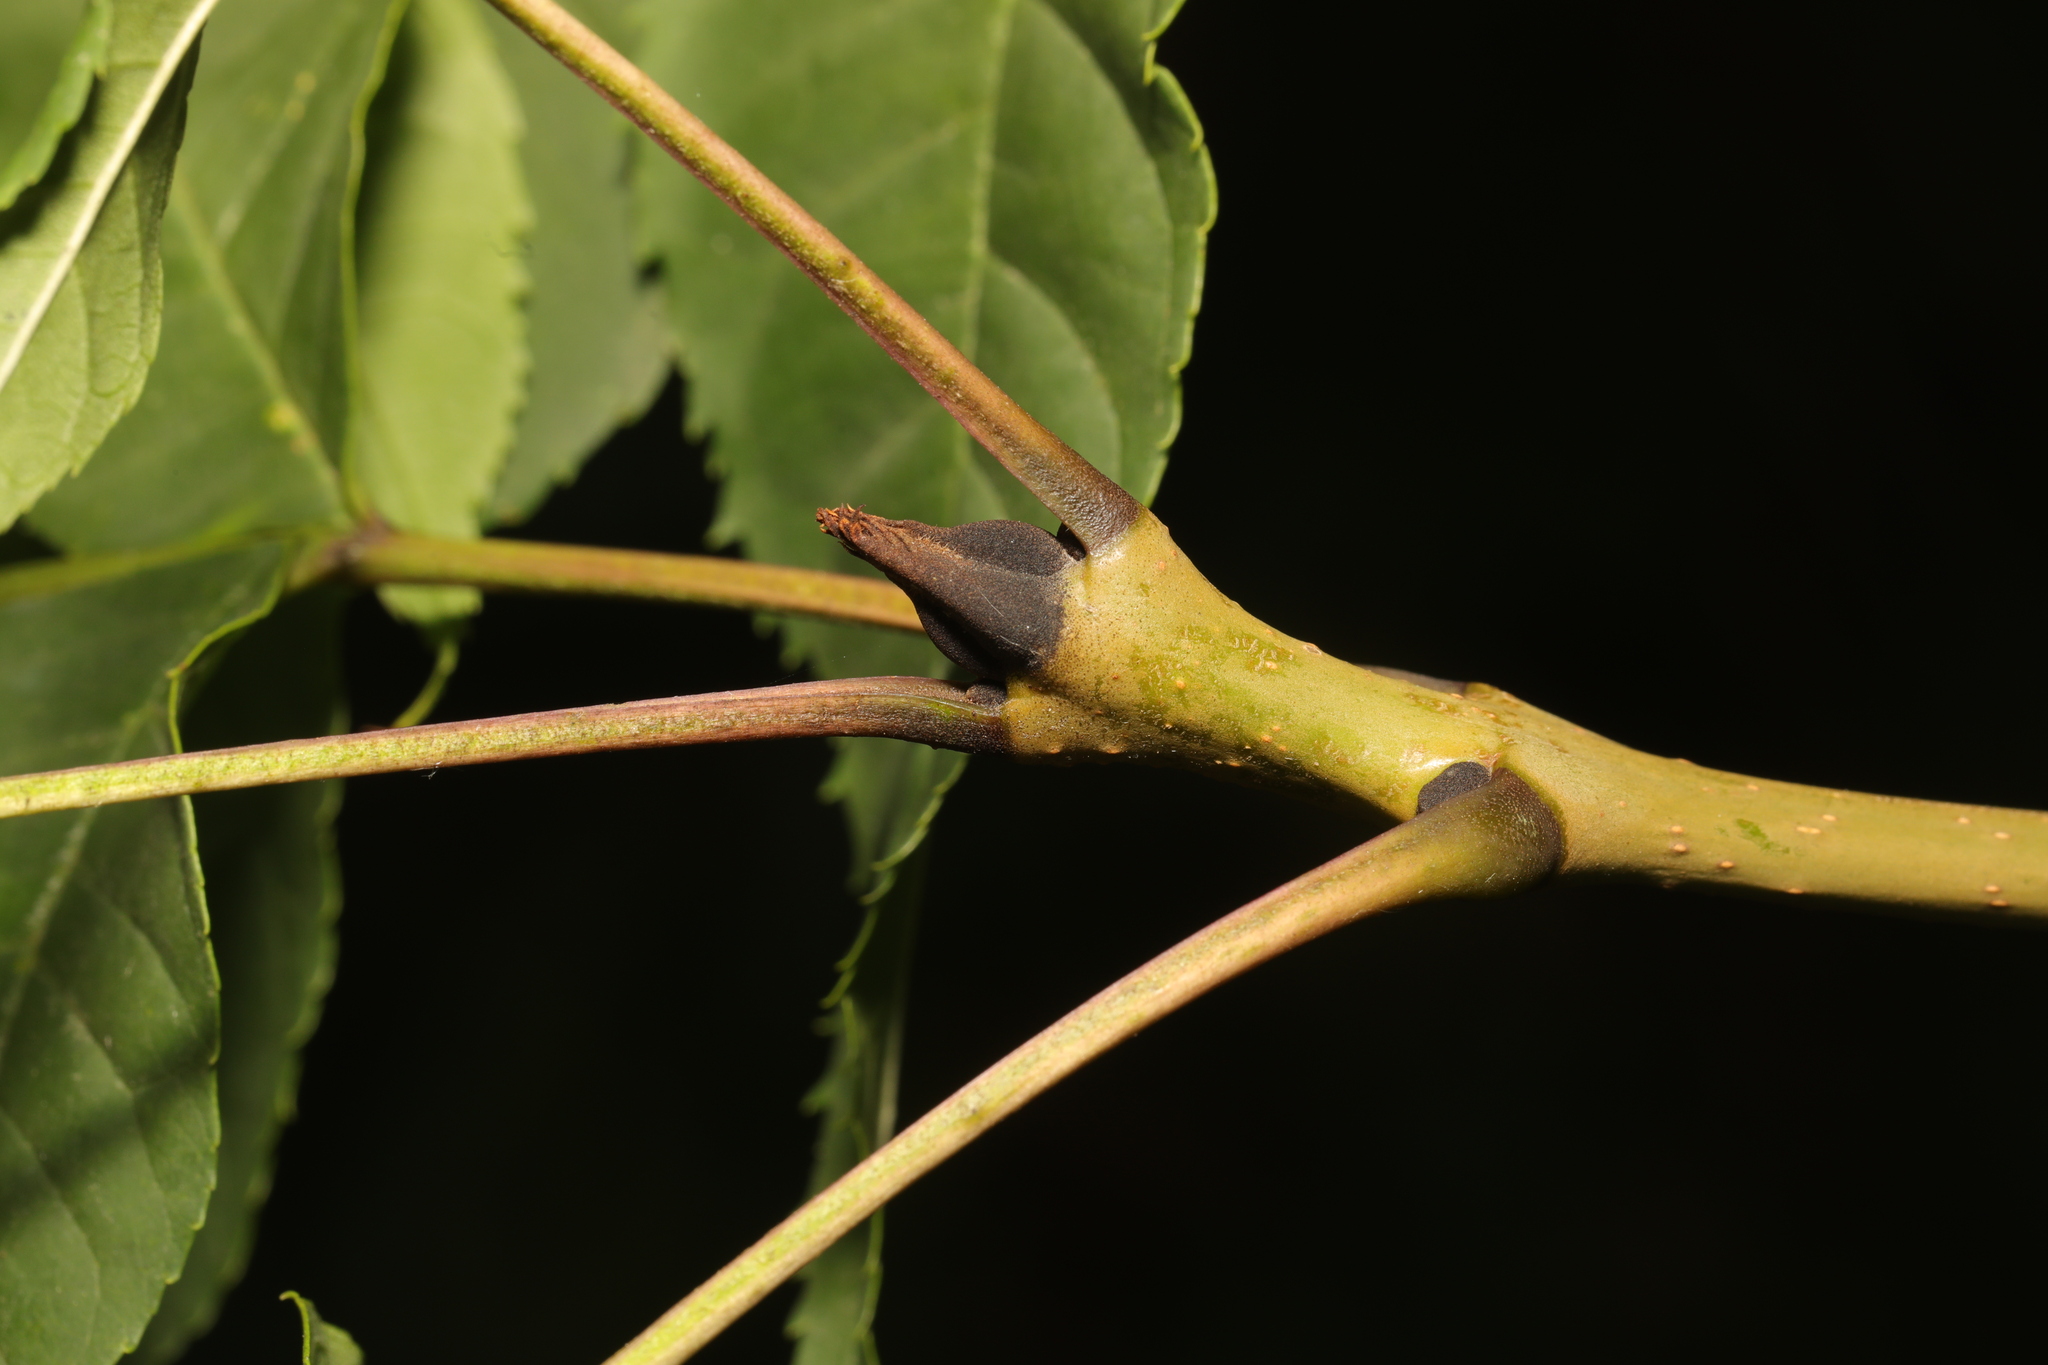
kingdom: Plantae
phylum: Tracheophyta
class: Magnoliopsida
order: Lamiales
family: Oleaceae
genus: Fraxinus
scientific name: Fraxinus excelsior
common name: European ash
